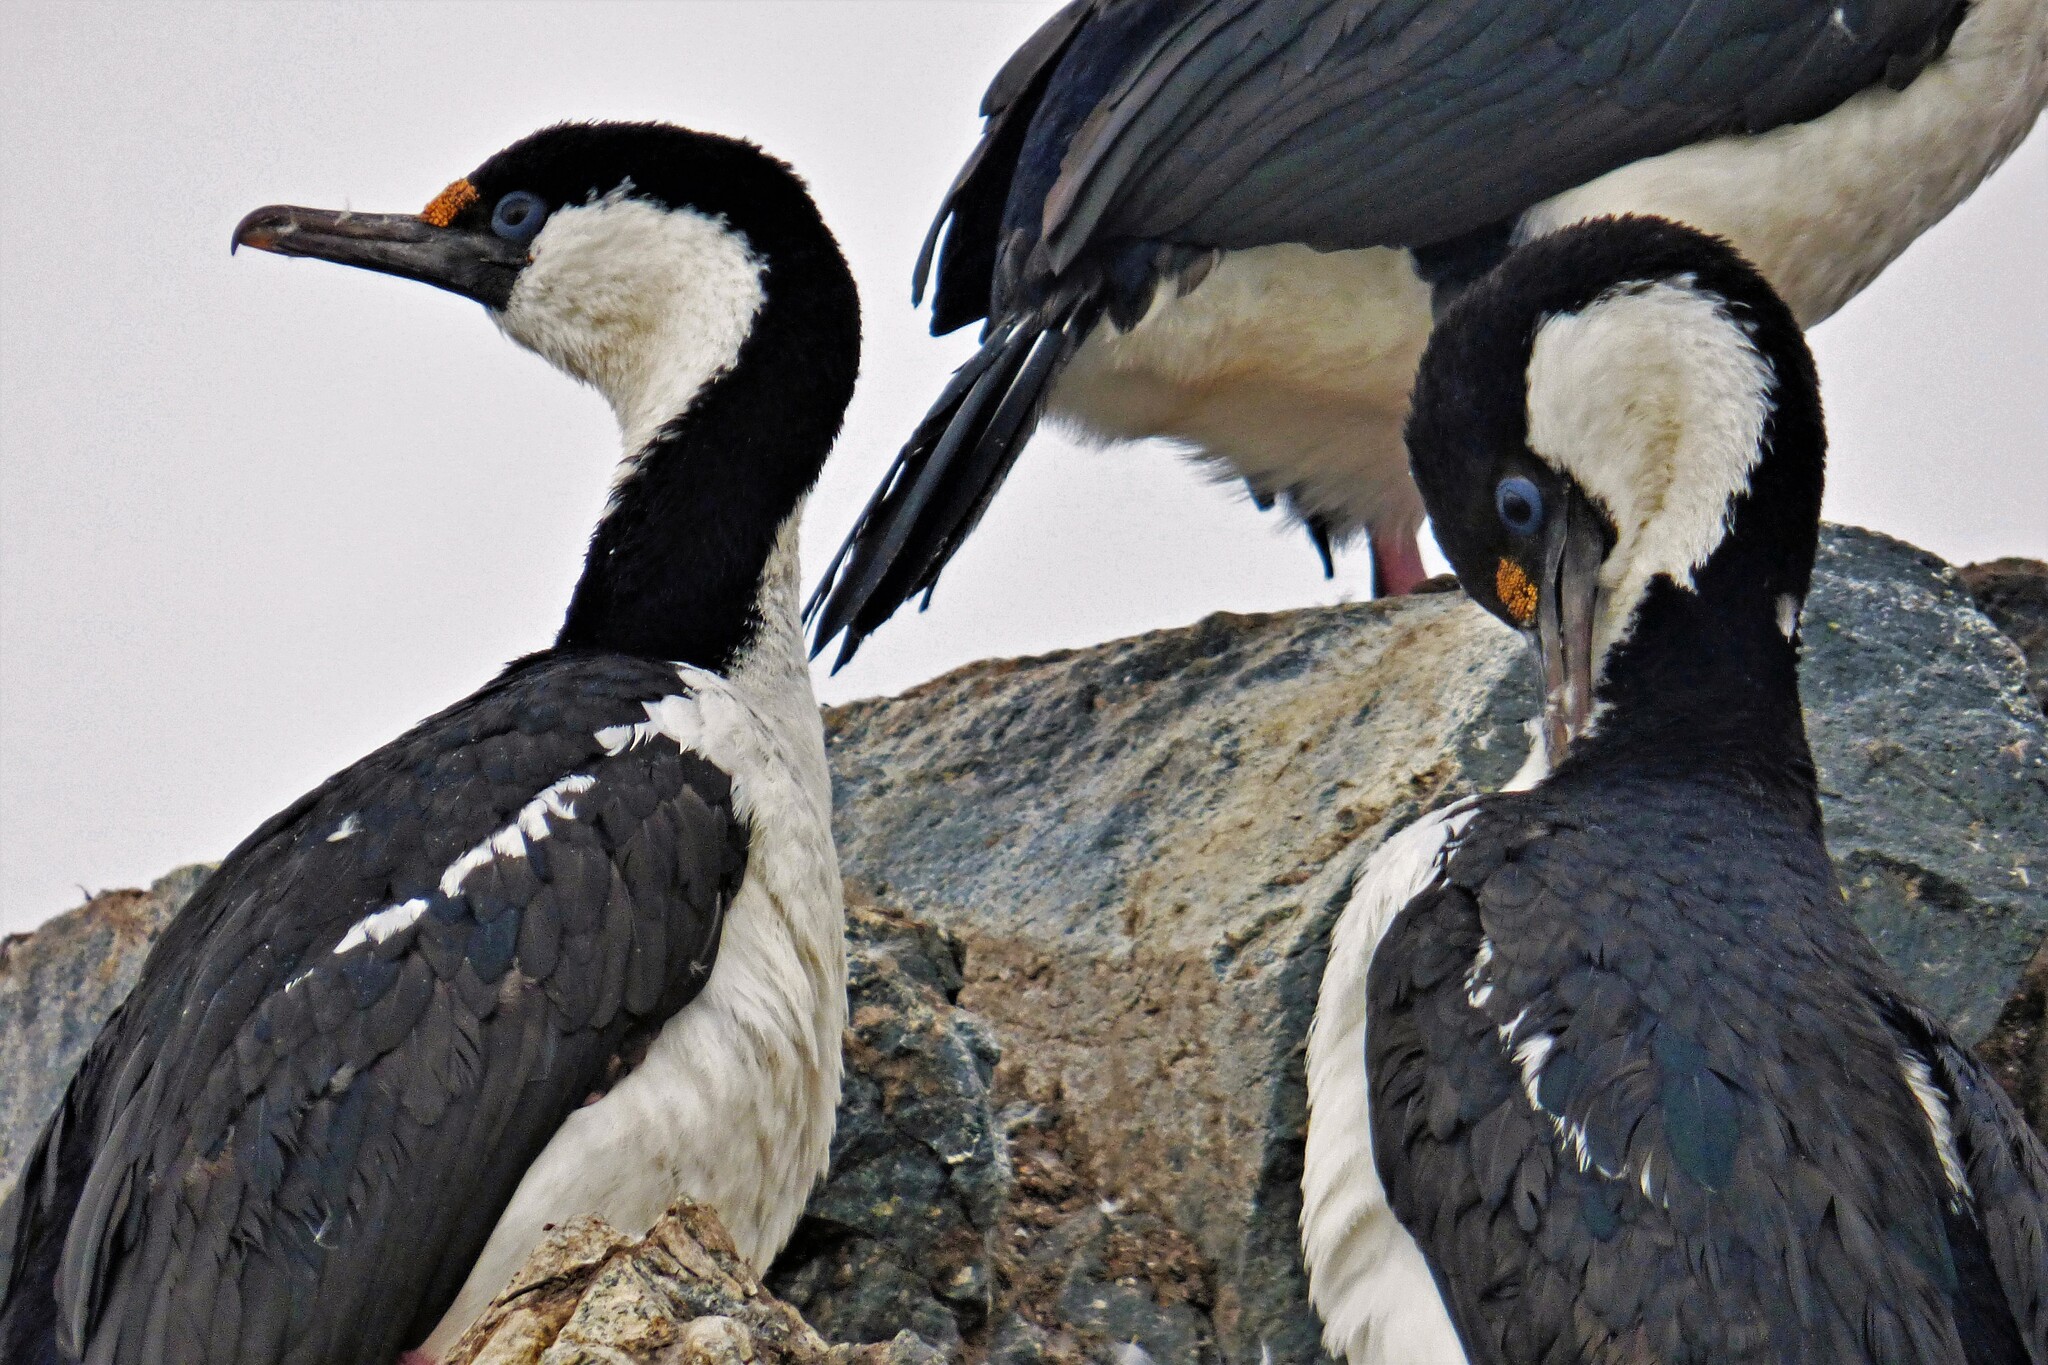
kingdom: Animalia
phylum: Chordata
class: Aves
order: Suliformes
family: Phalacrocoracidae
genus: Leucocarbo
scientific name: Leucocarbo atriceps
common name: Imperial shag
